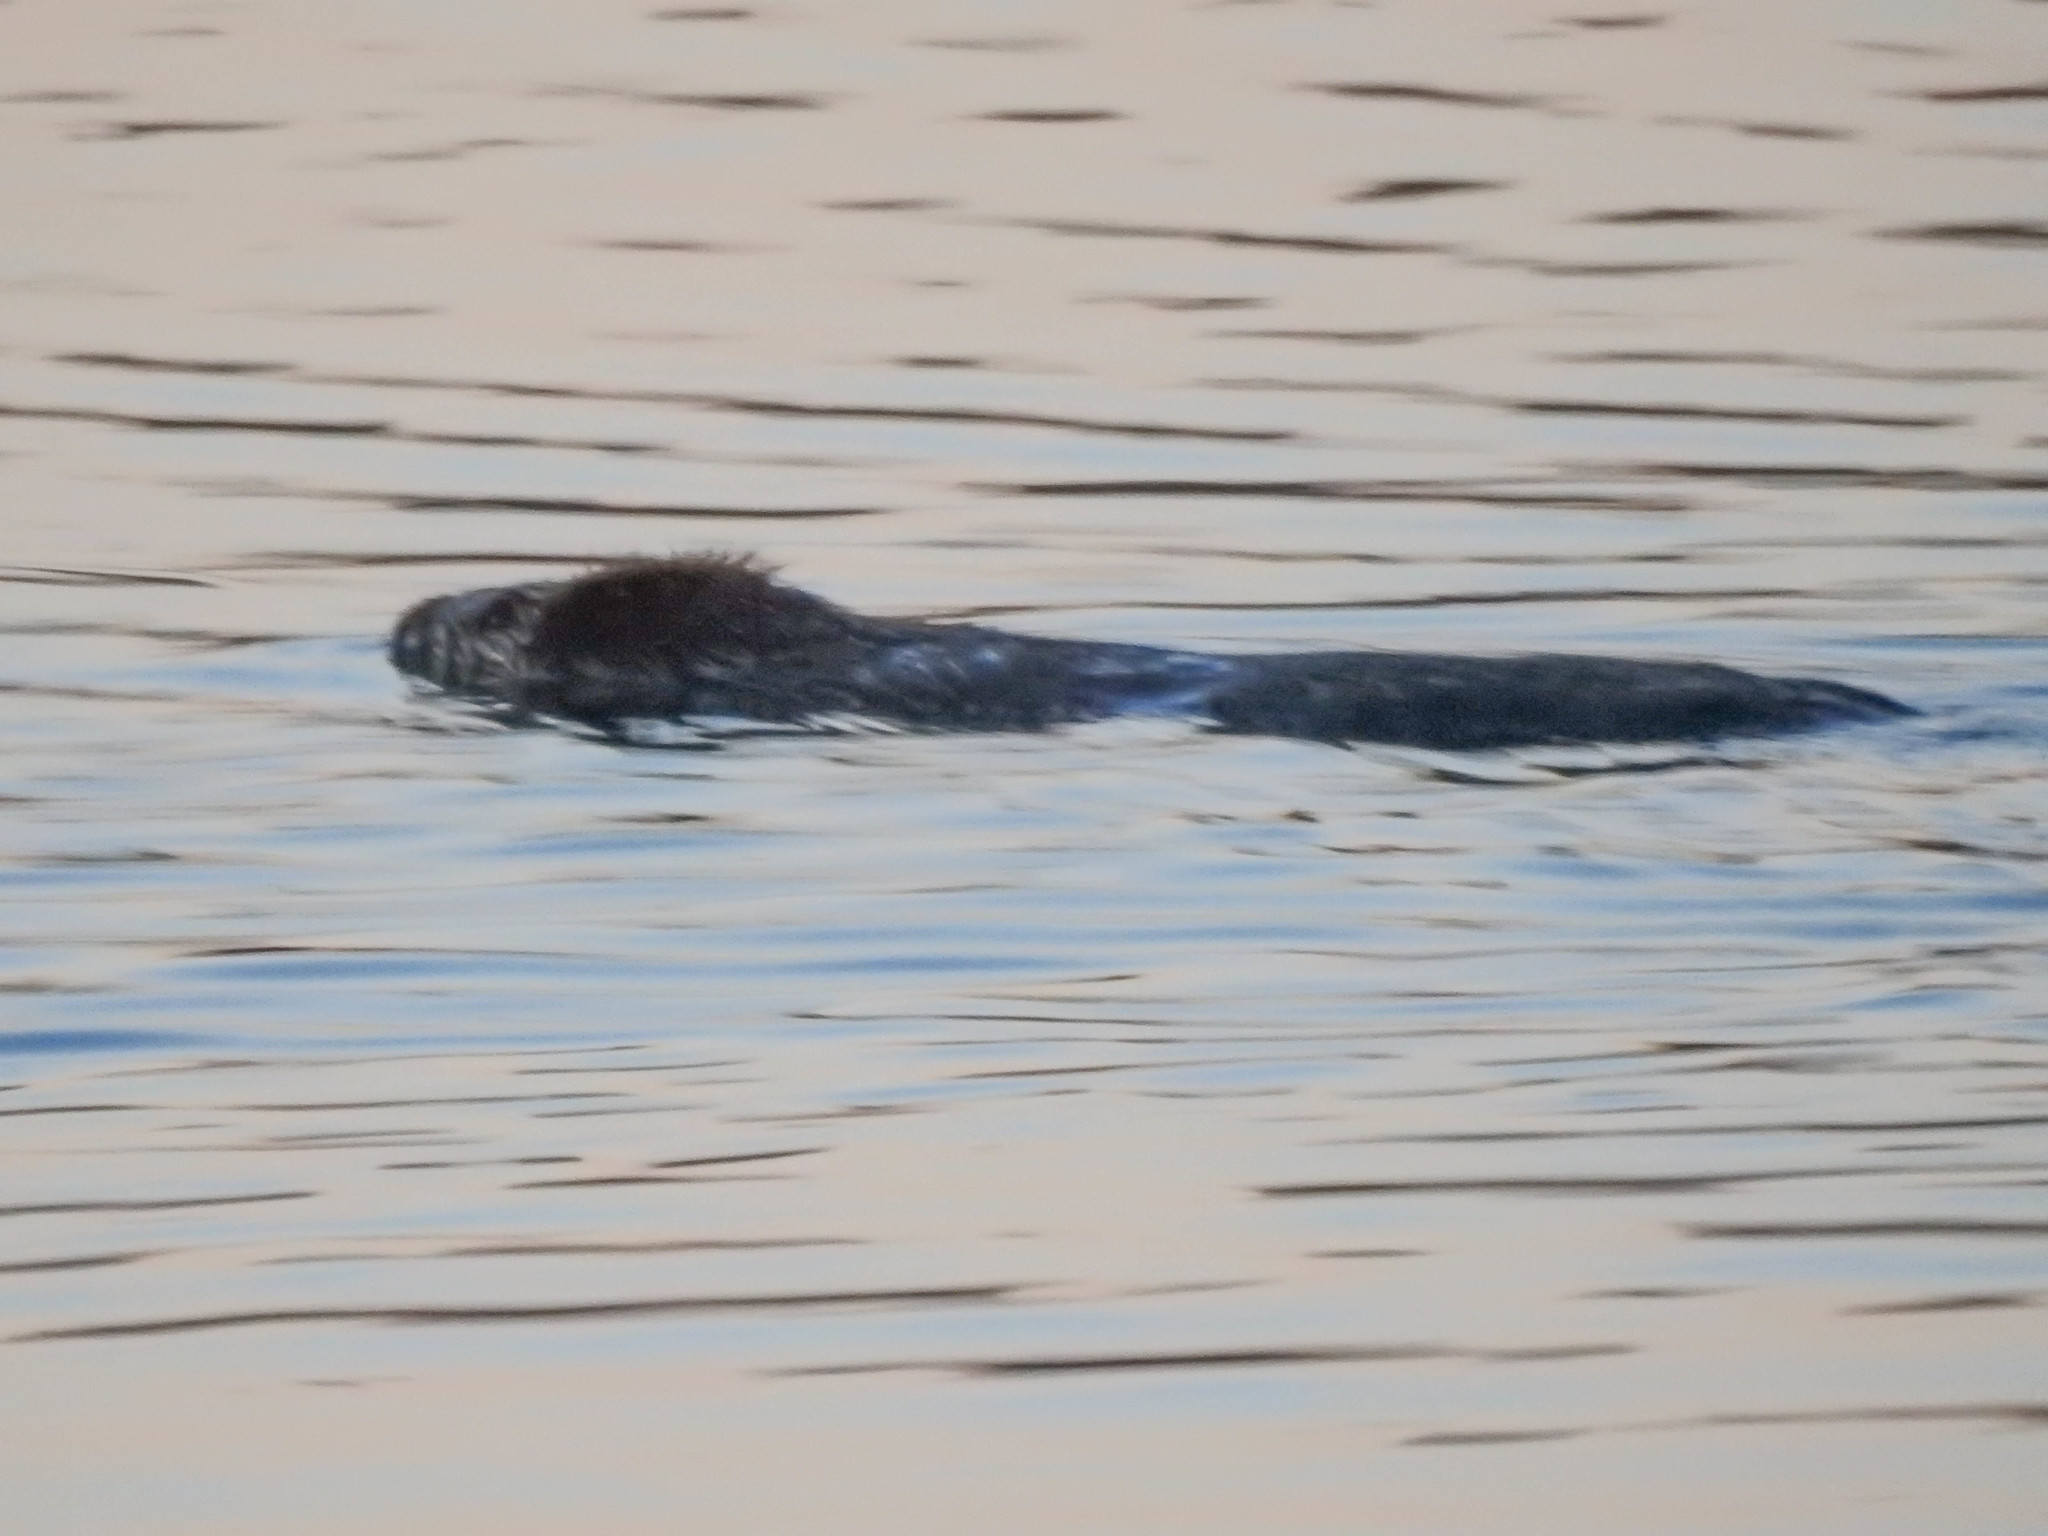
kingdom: Animalia
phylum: Chordata
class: Mammalia
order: Rodentia
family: Castoridae
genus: Castor
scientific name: Castor canadensis
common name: American beaver
